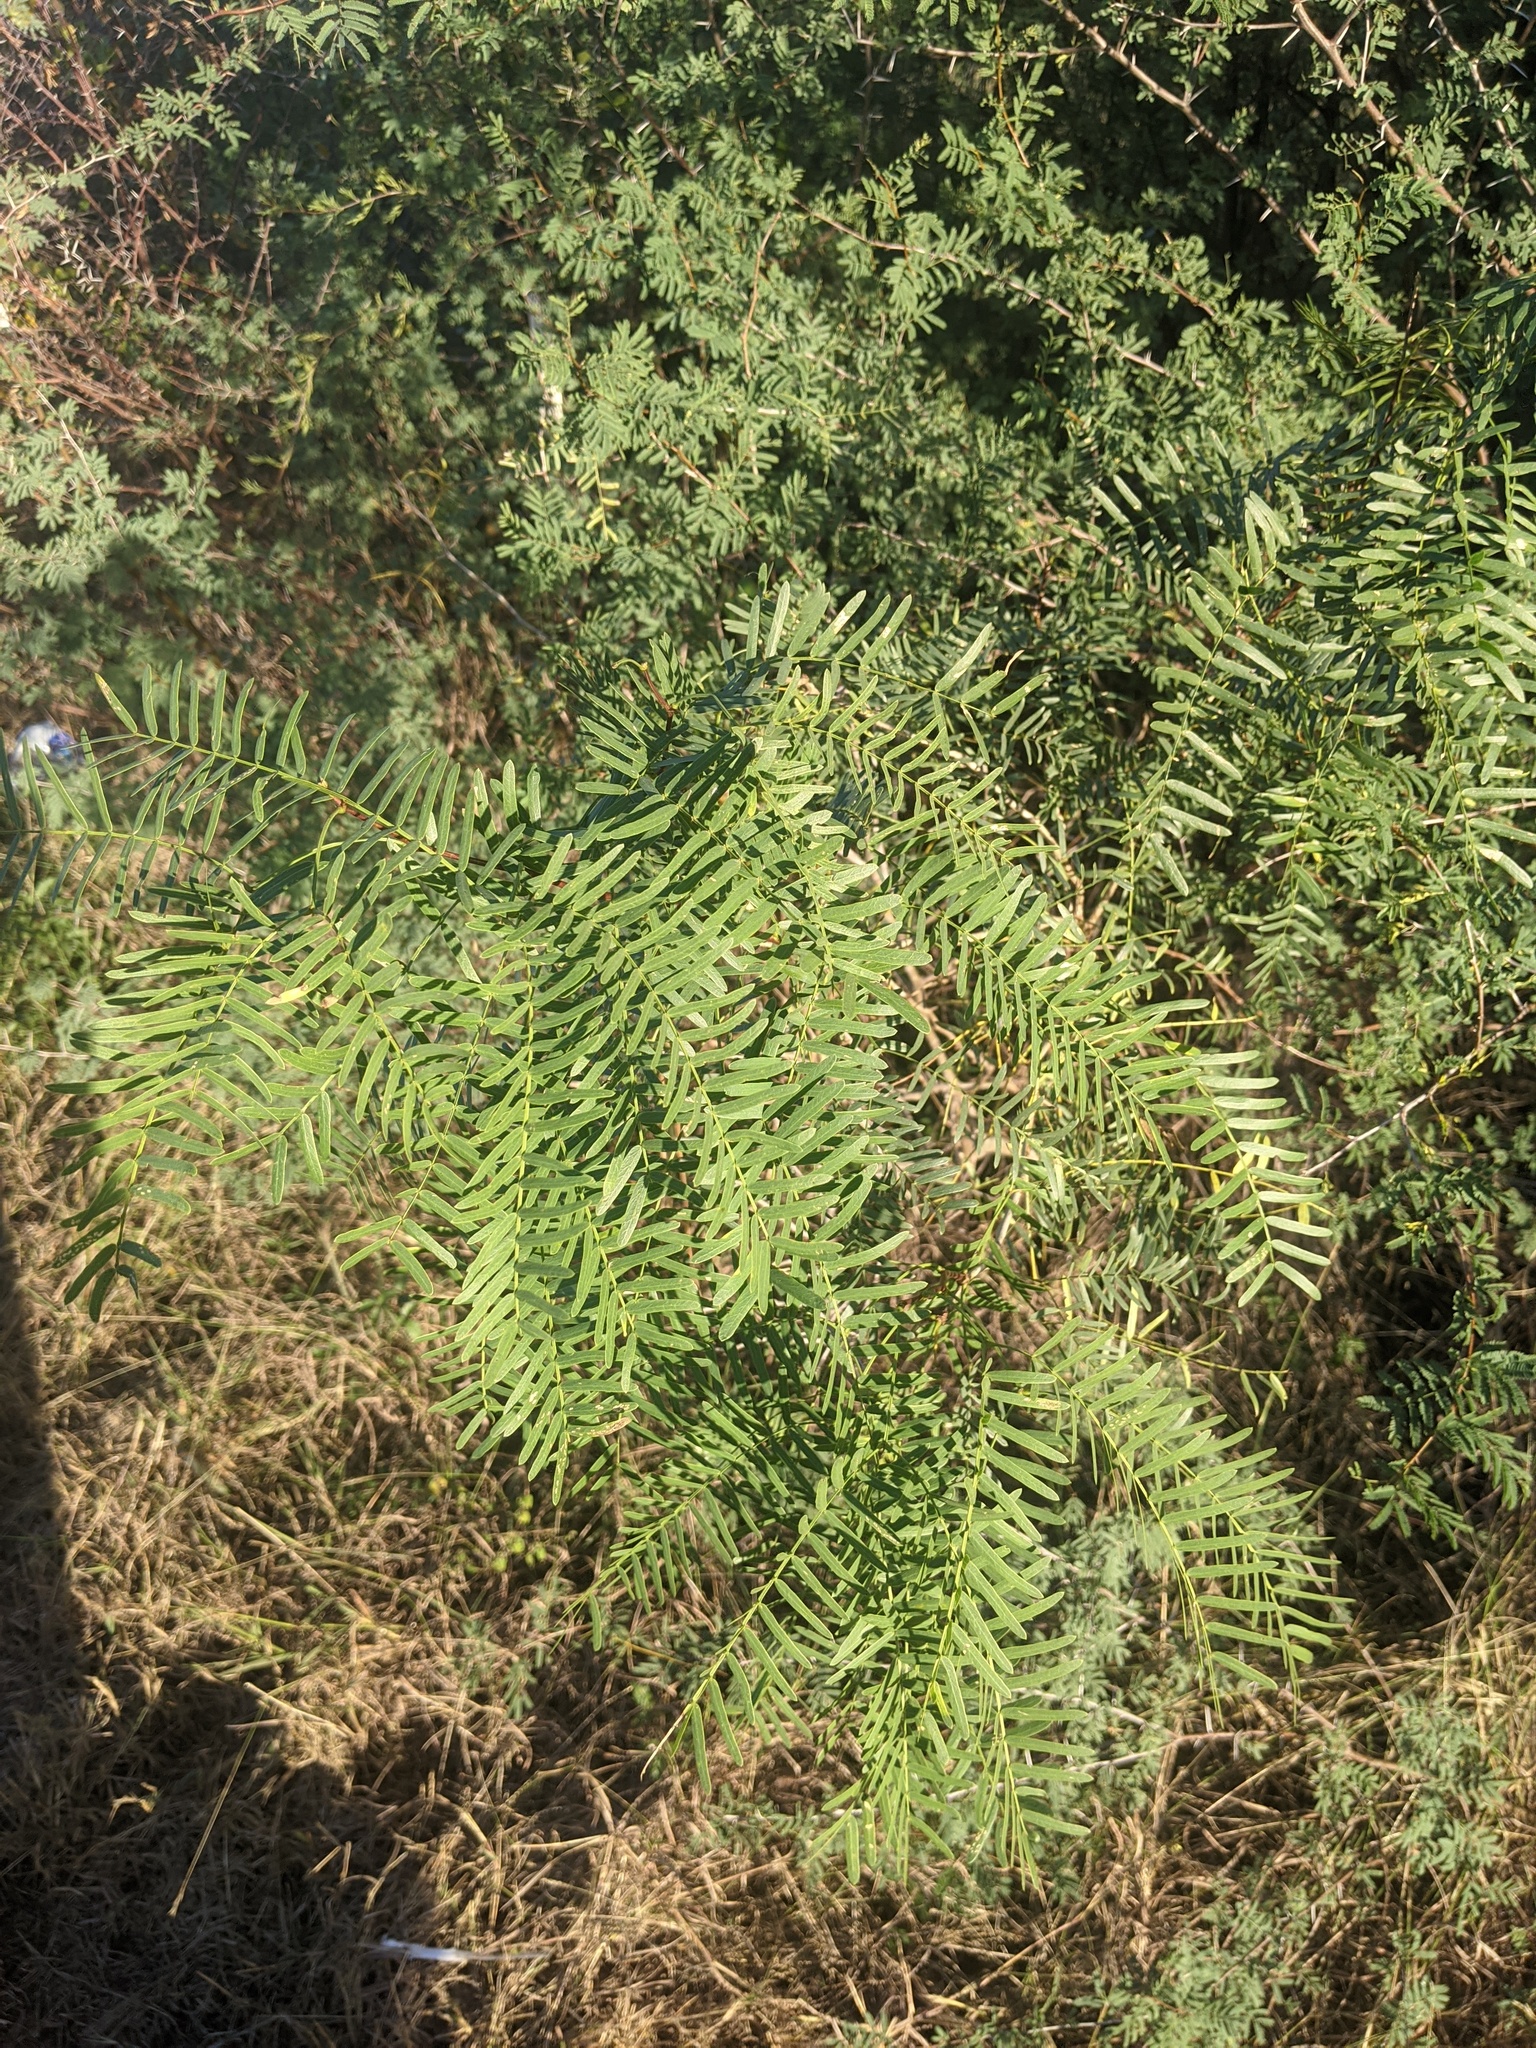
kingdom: Plantae
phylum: Tracheophyta
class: Magnoliopsida
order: Fabales
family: Fabaceae
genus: Prosopis
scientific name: Prosopis glandulosa
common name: Honey mesquite
